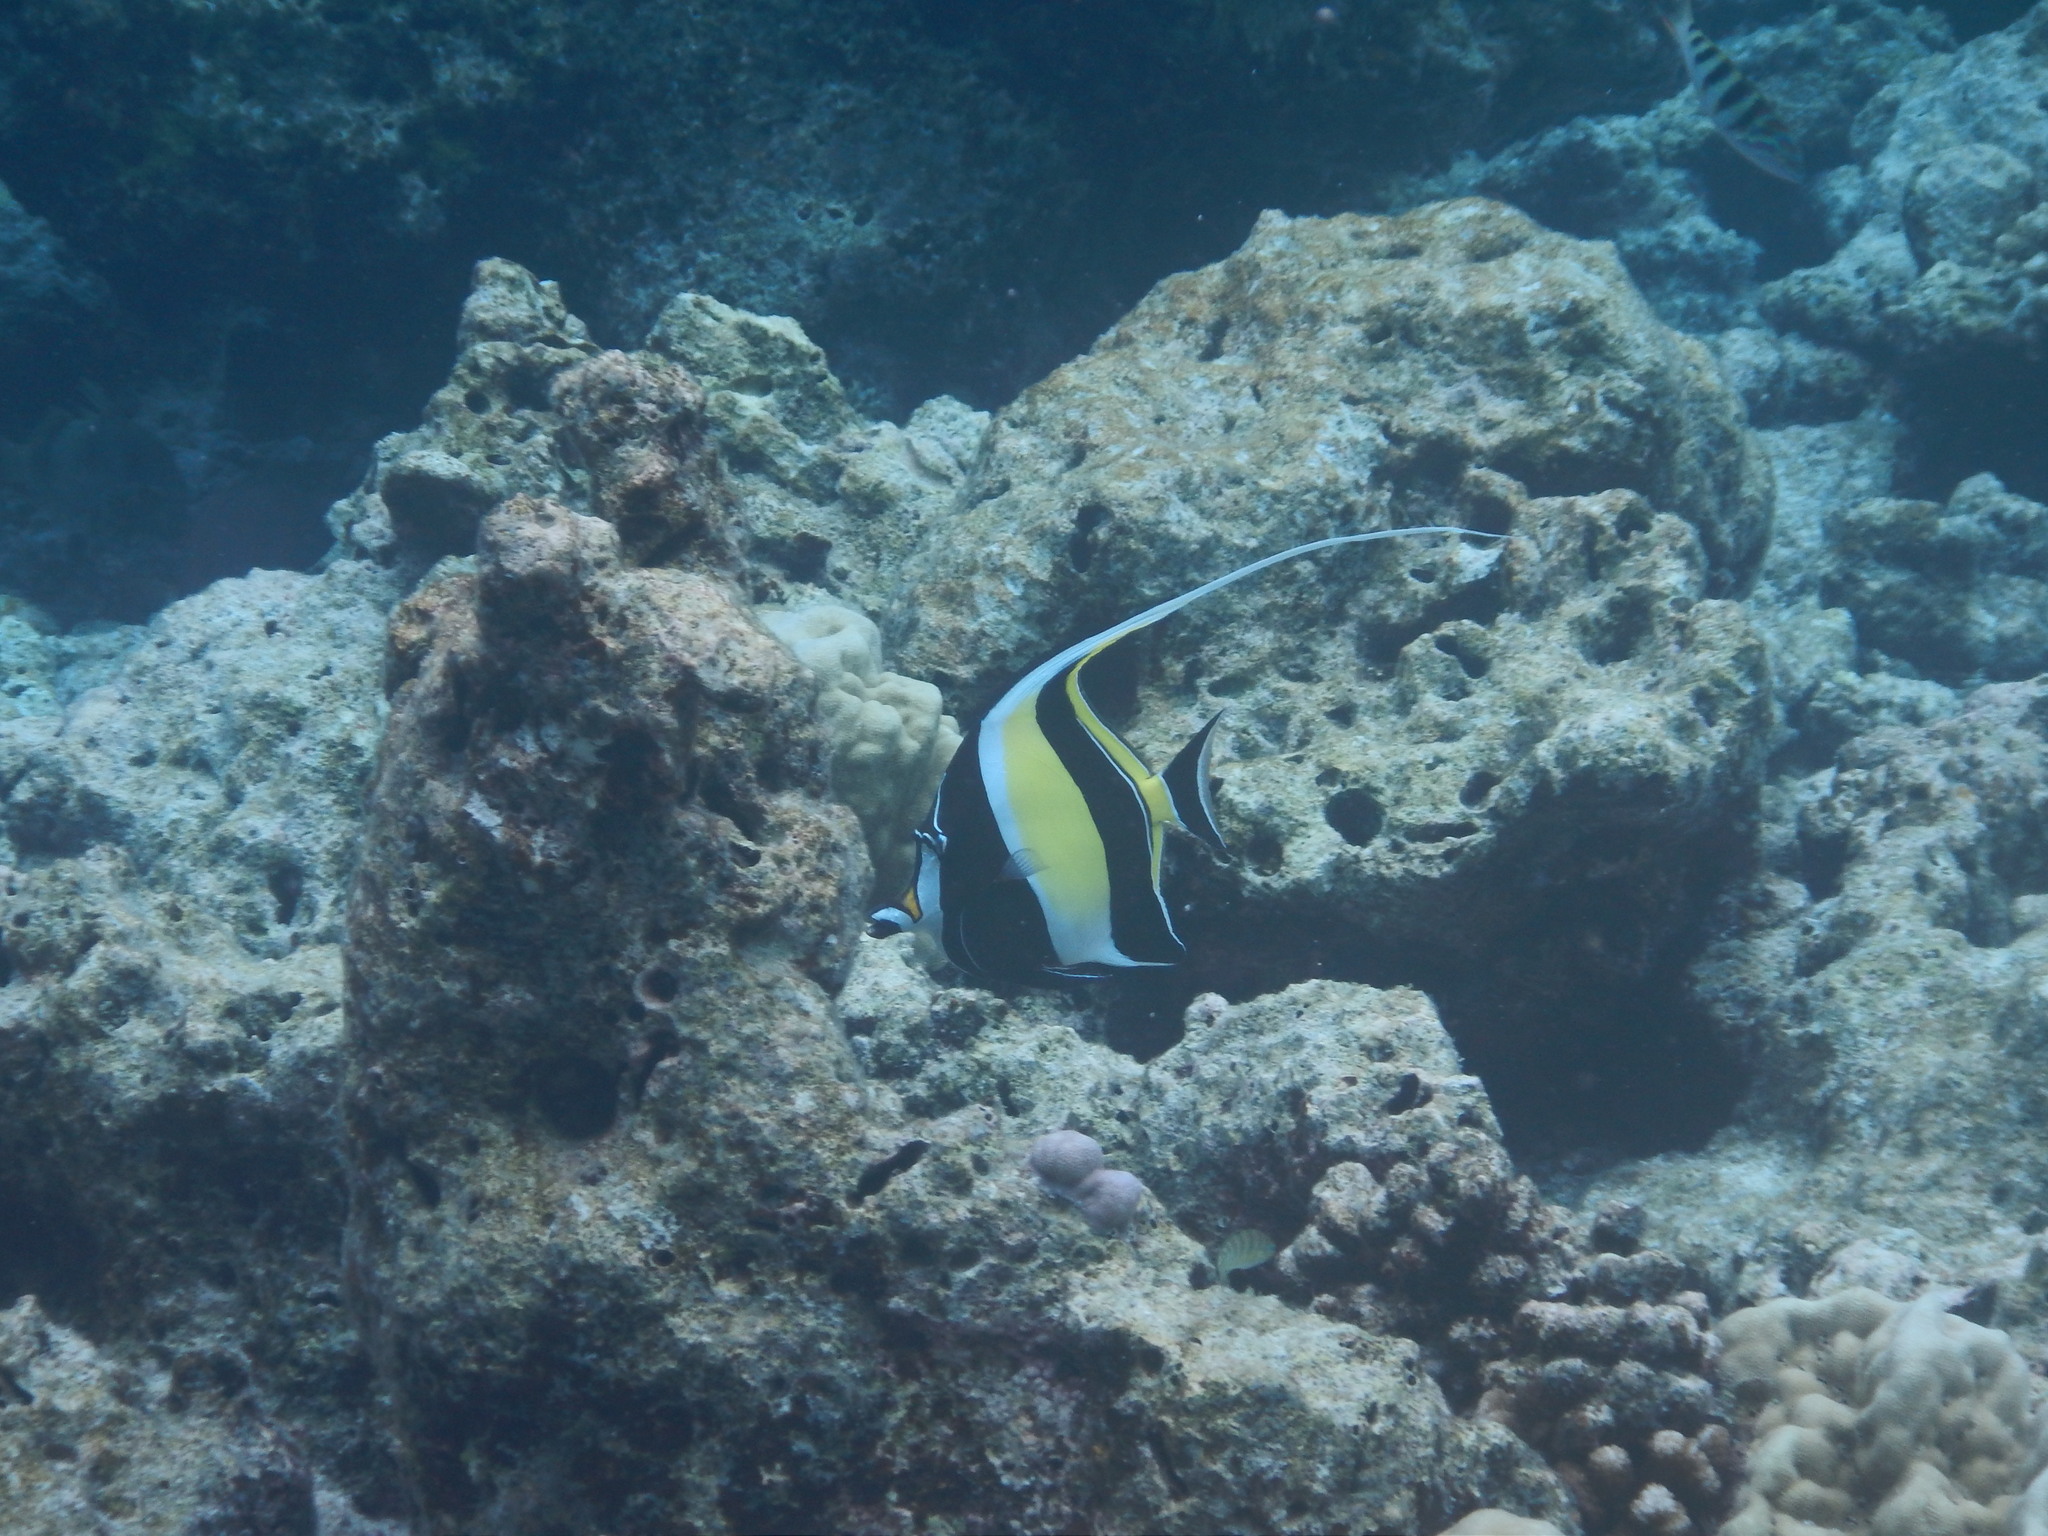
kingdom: Animalia
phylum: Chordata
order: Perciformes
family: Zanclidae
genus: Zanclus
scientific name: Zanclus cornutus
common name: Moorish idol
